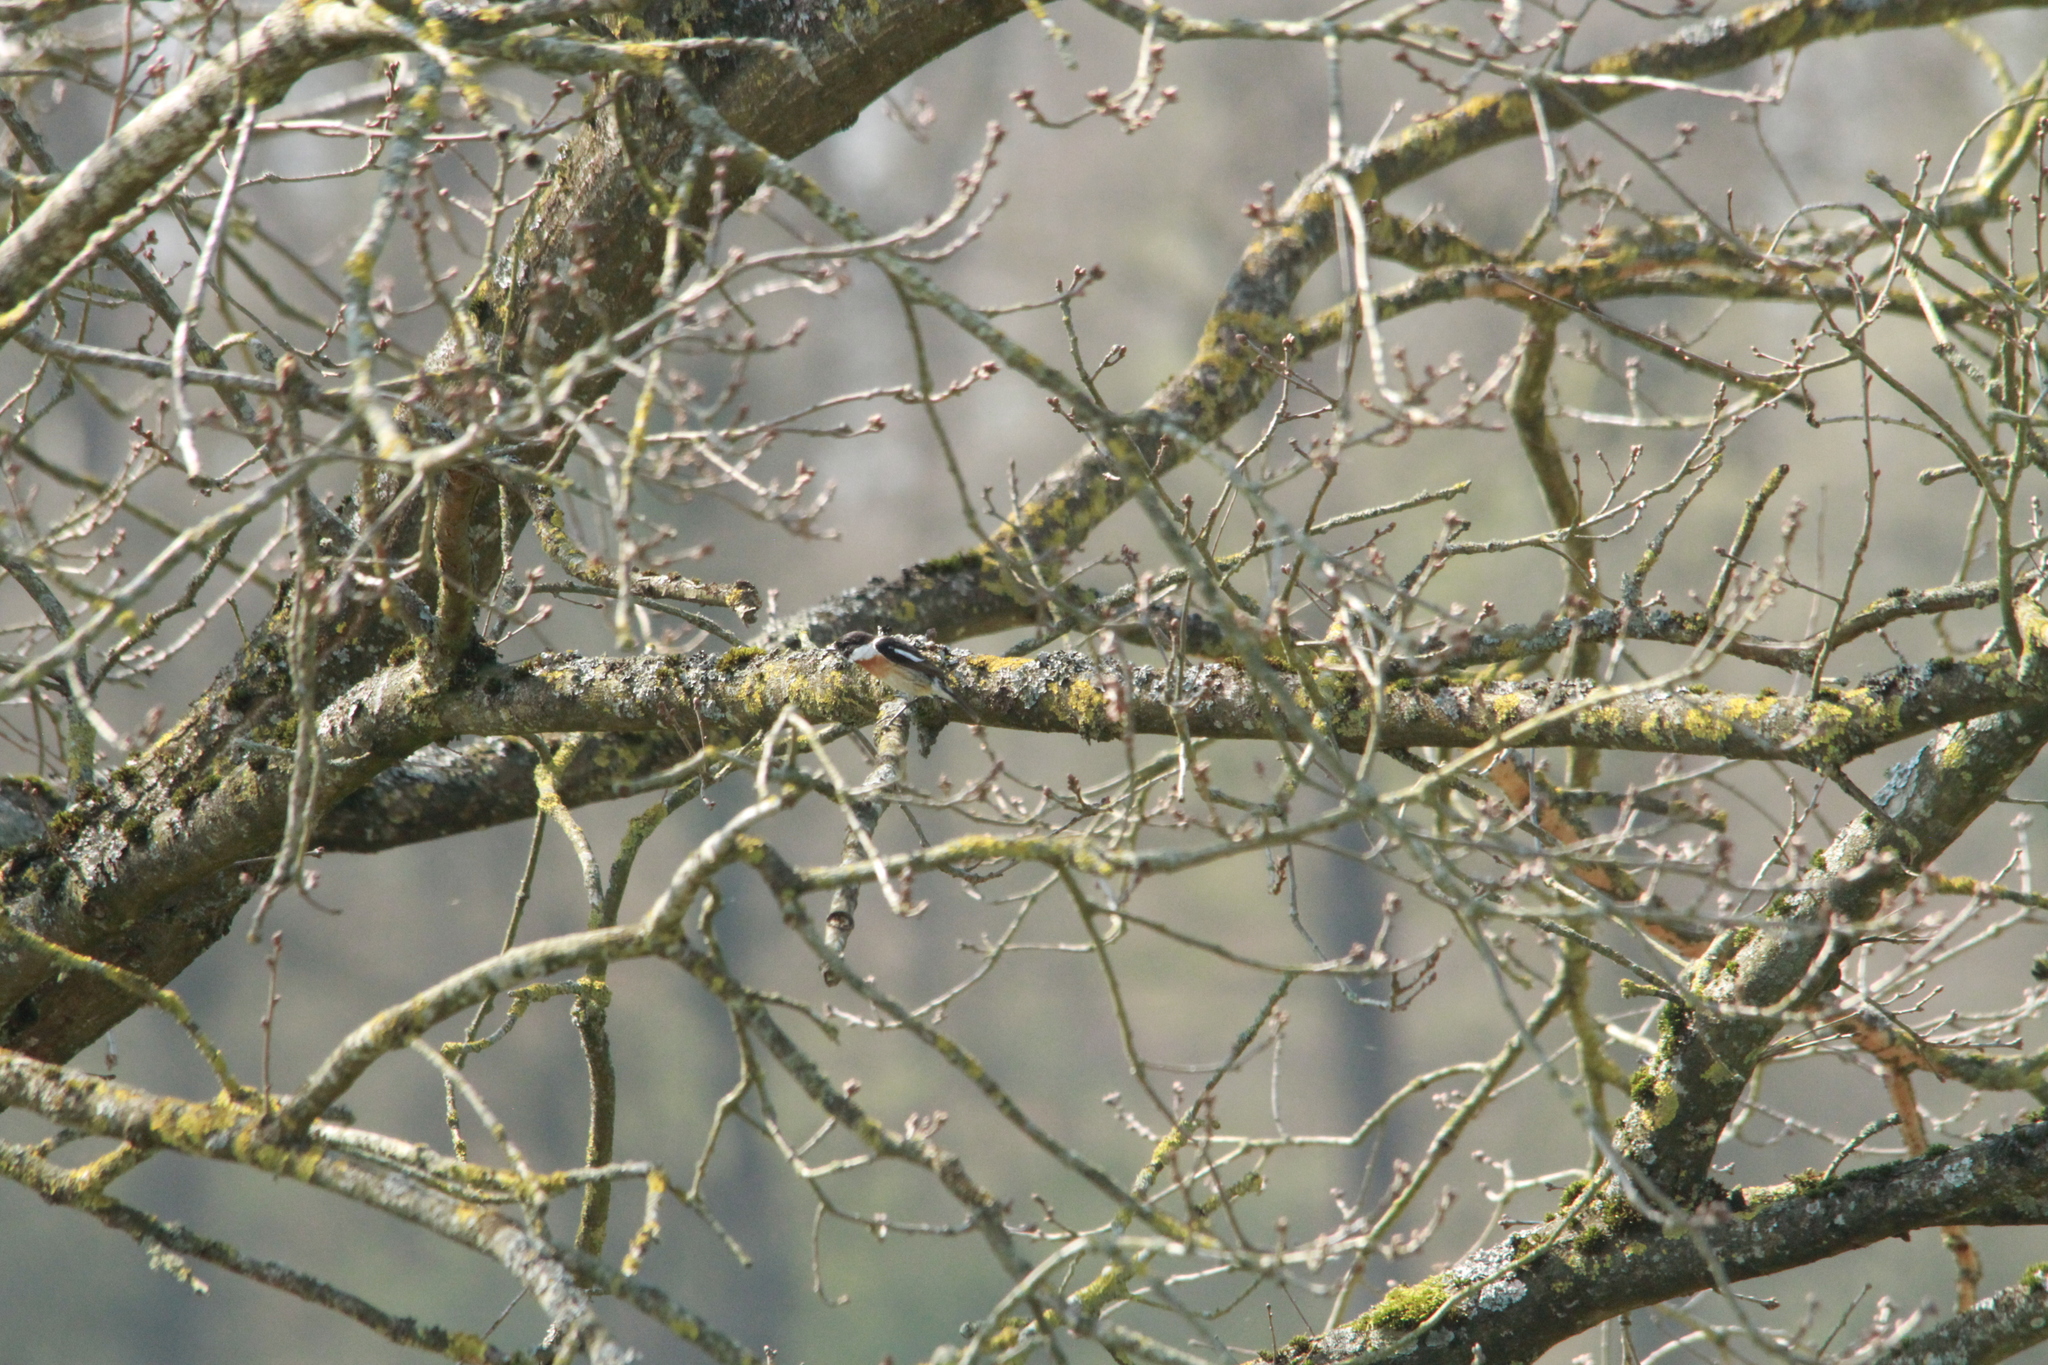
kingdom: Animalia
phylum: Chordata
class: Aves
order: Passeriformes
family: Muscicapidae
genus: Saxicola
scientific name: Saxicola rubicola
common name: European stonechat
